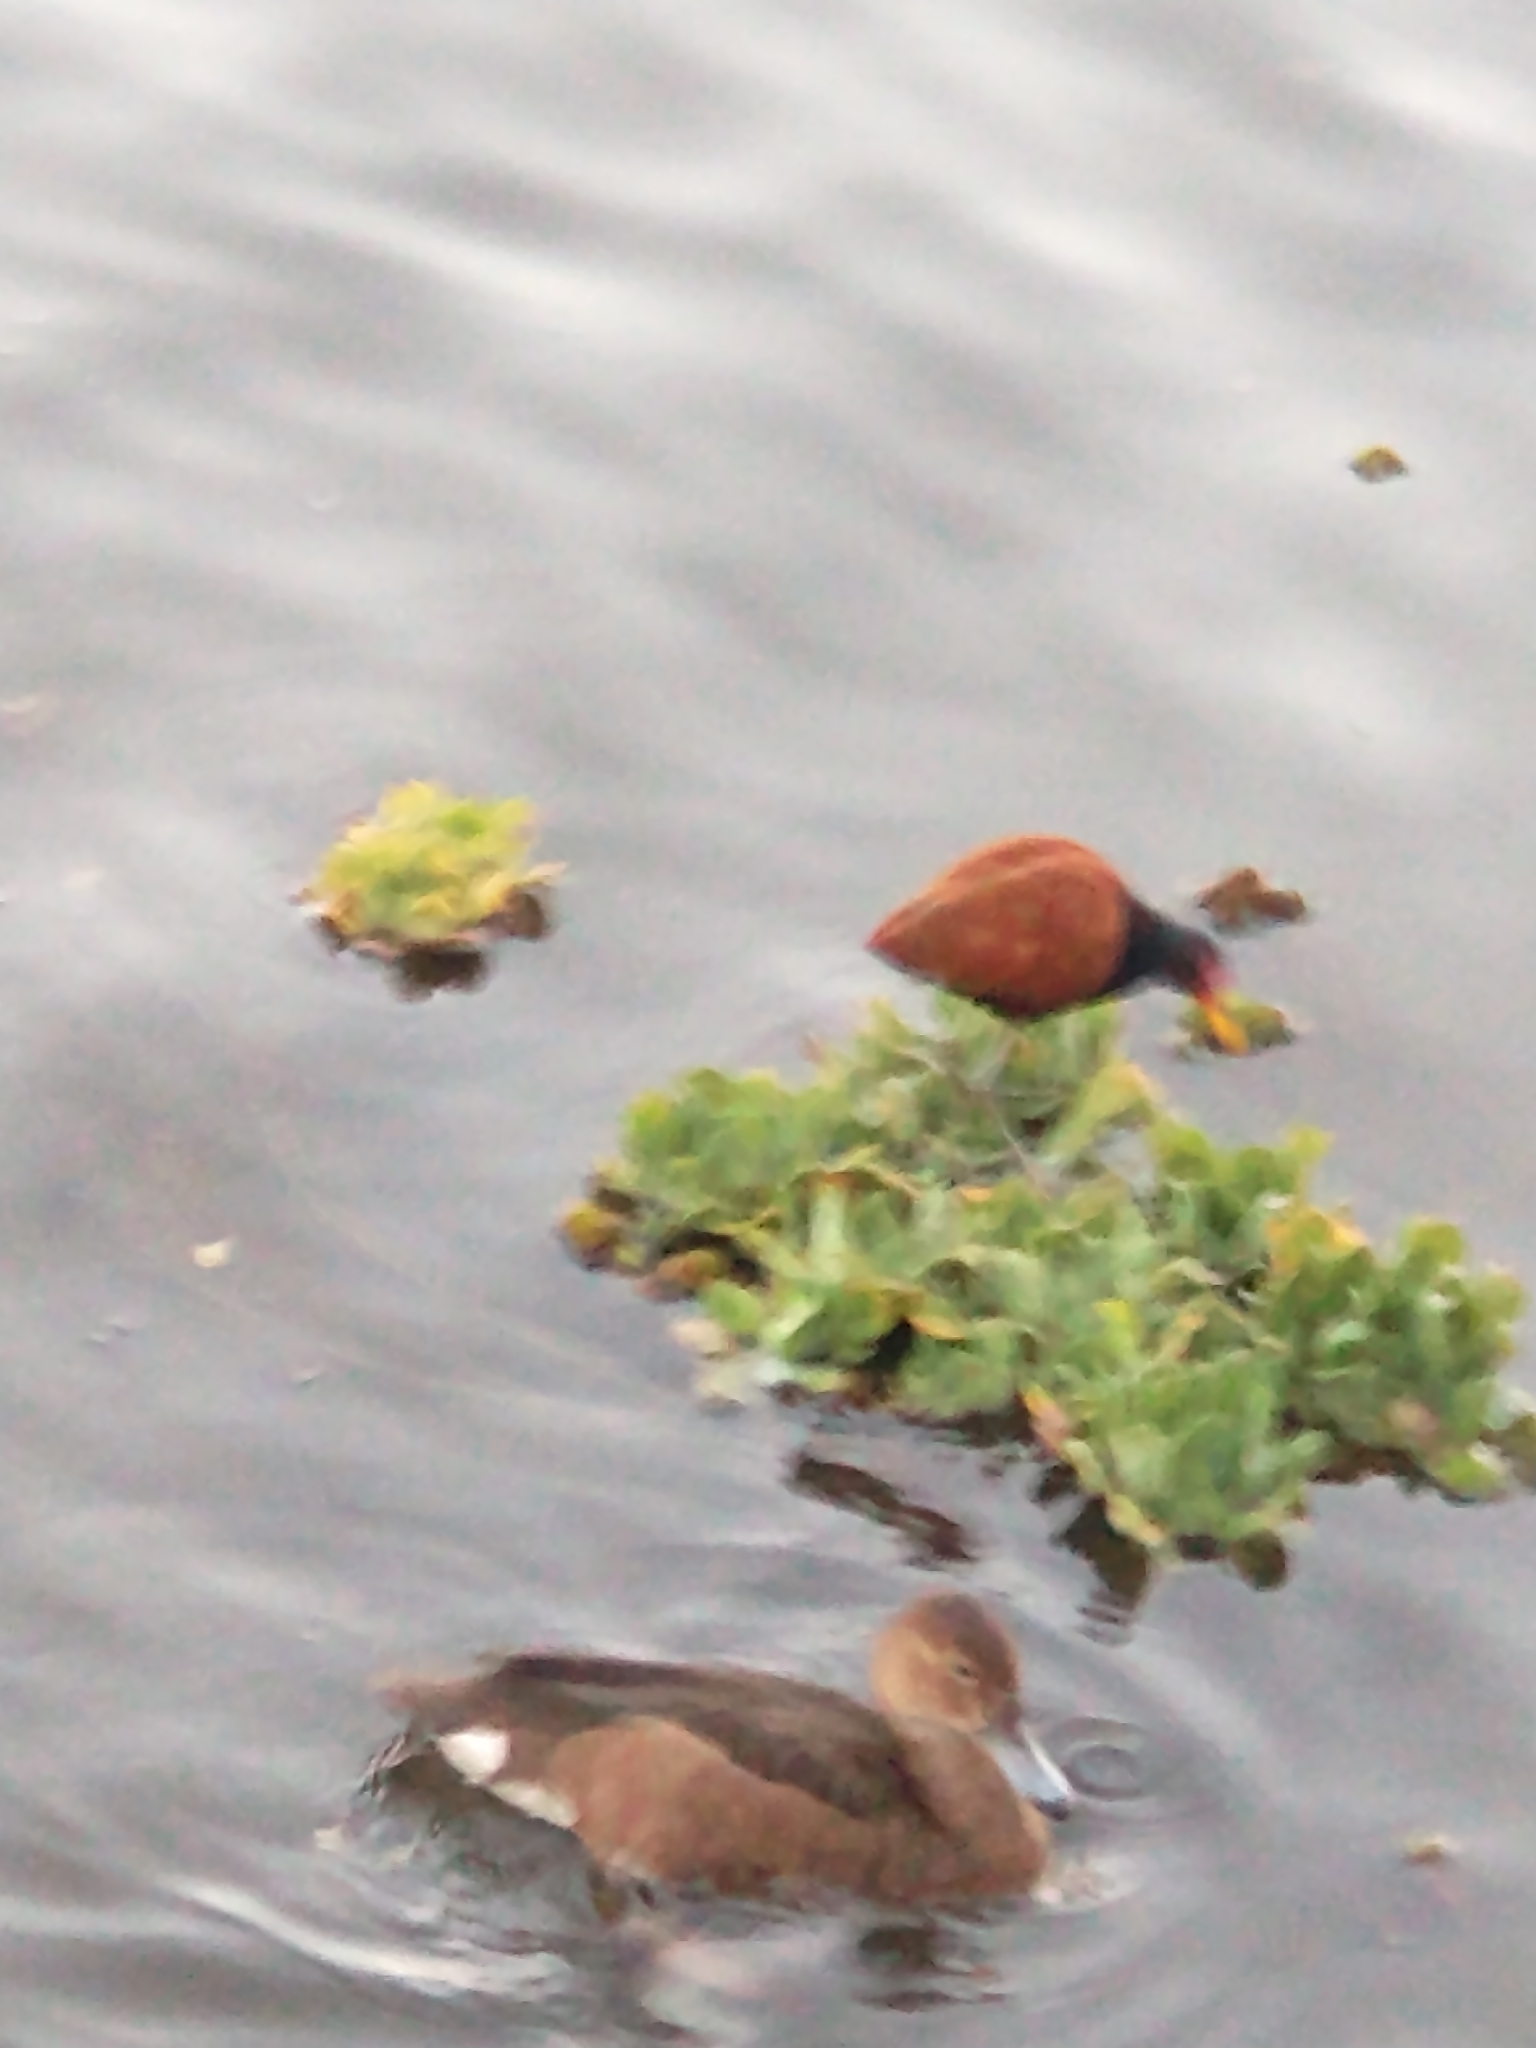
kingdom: Animalia
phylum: Chordata
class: Aves
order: Charadriiformes
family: Jacanidae
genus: Jacana
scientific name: Jacana jacana
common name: Wattled jacana
